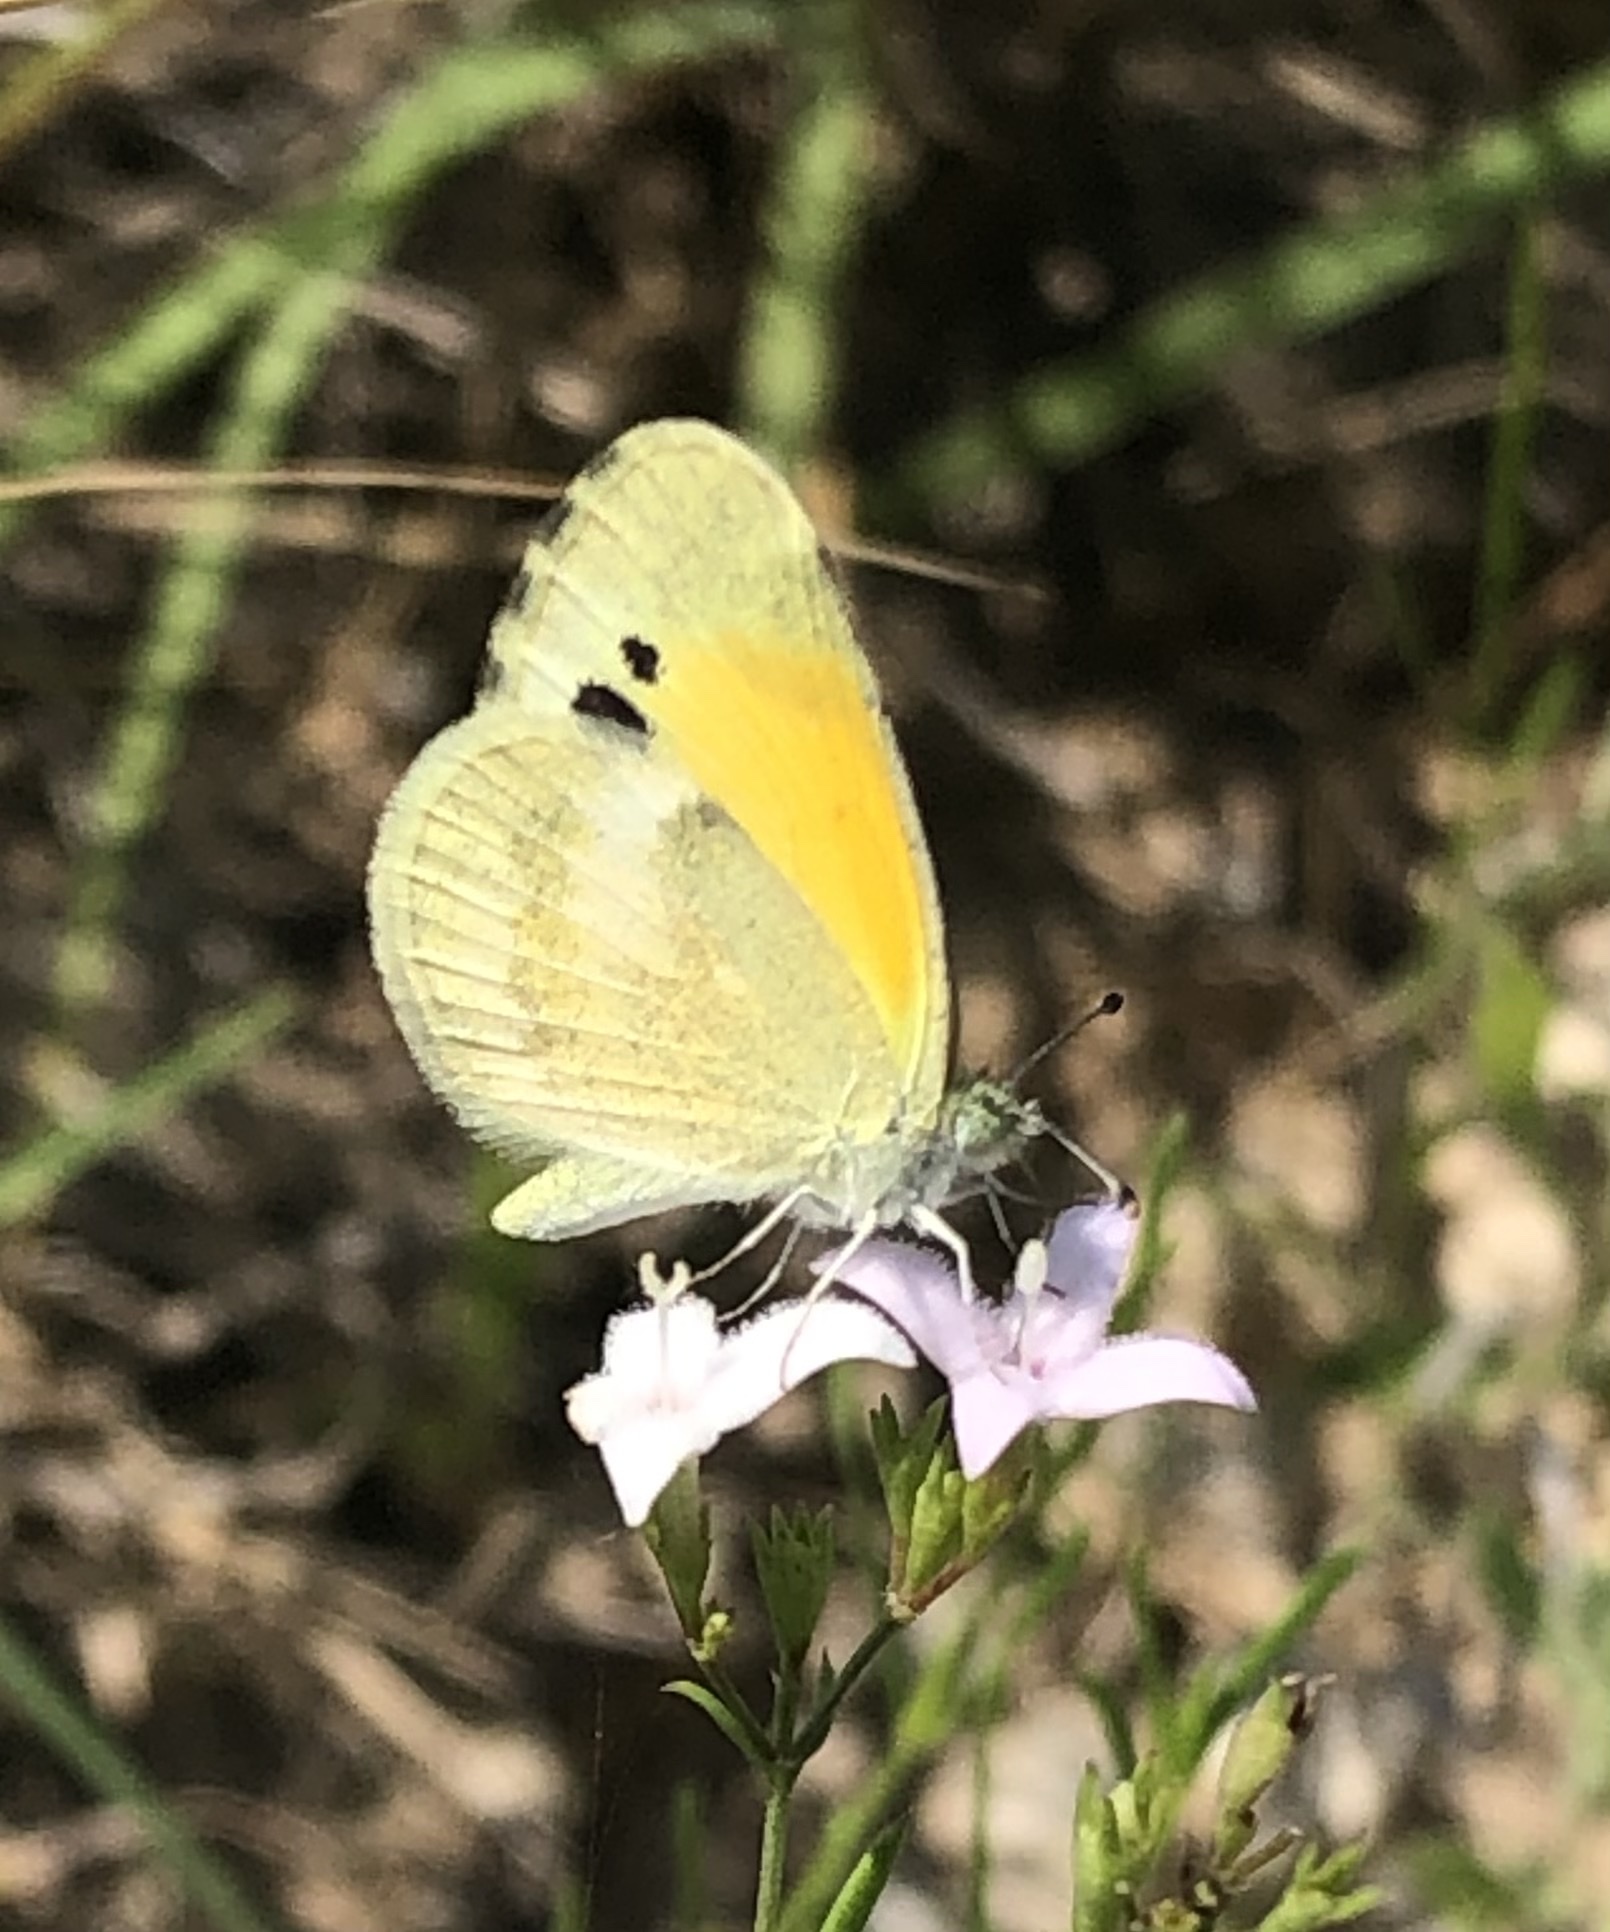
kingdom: Animalia
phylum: Arthropoda
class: Insecta
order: Lepidoptera
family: Pieridae
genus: Nathalis
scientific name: Nathalis iole
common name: Dainty sulphur
